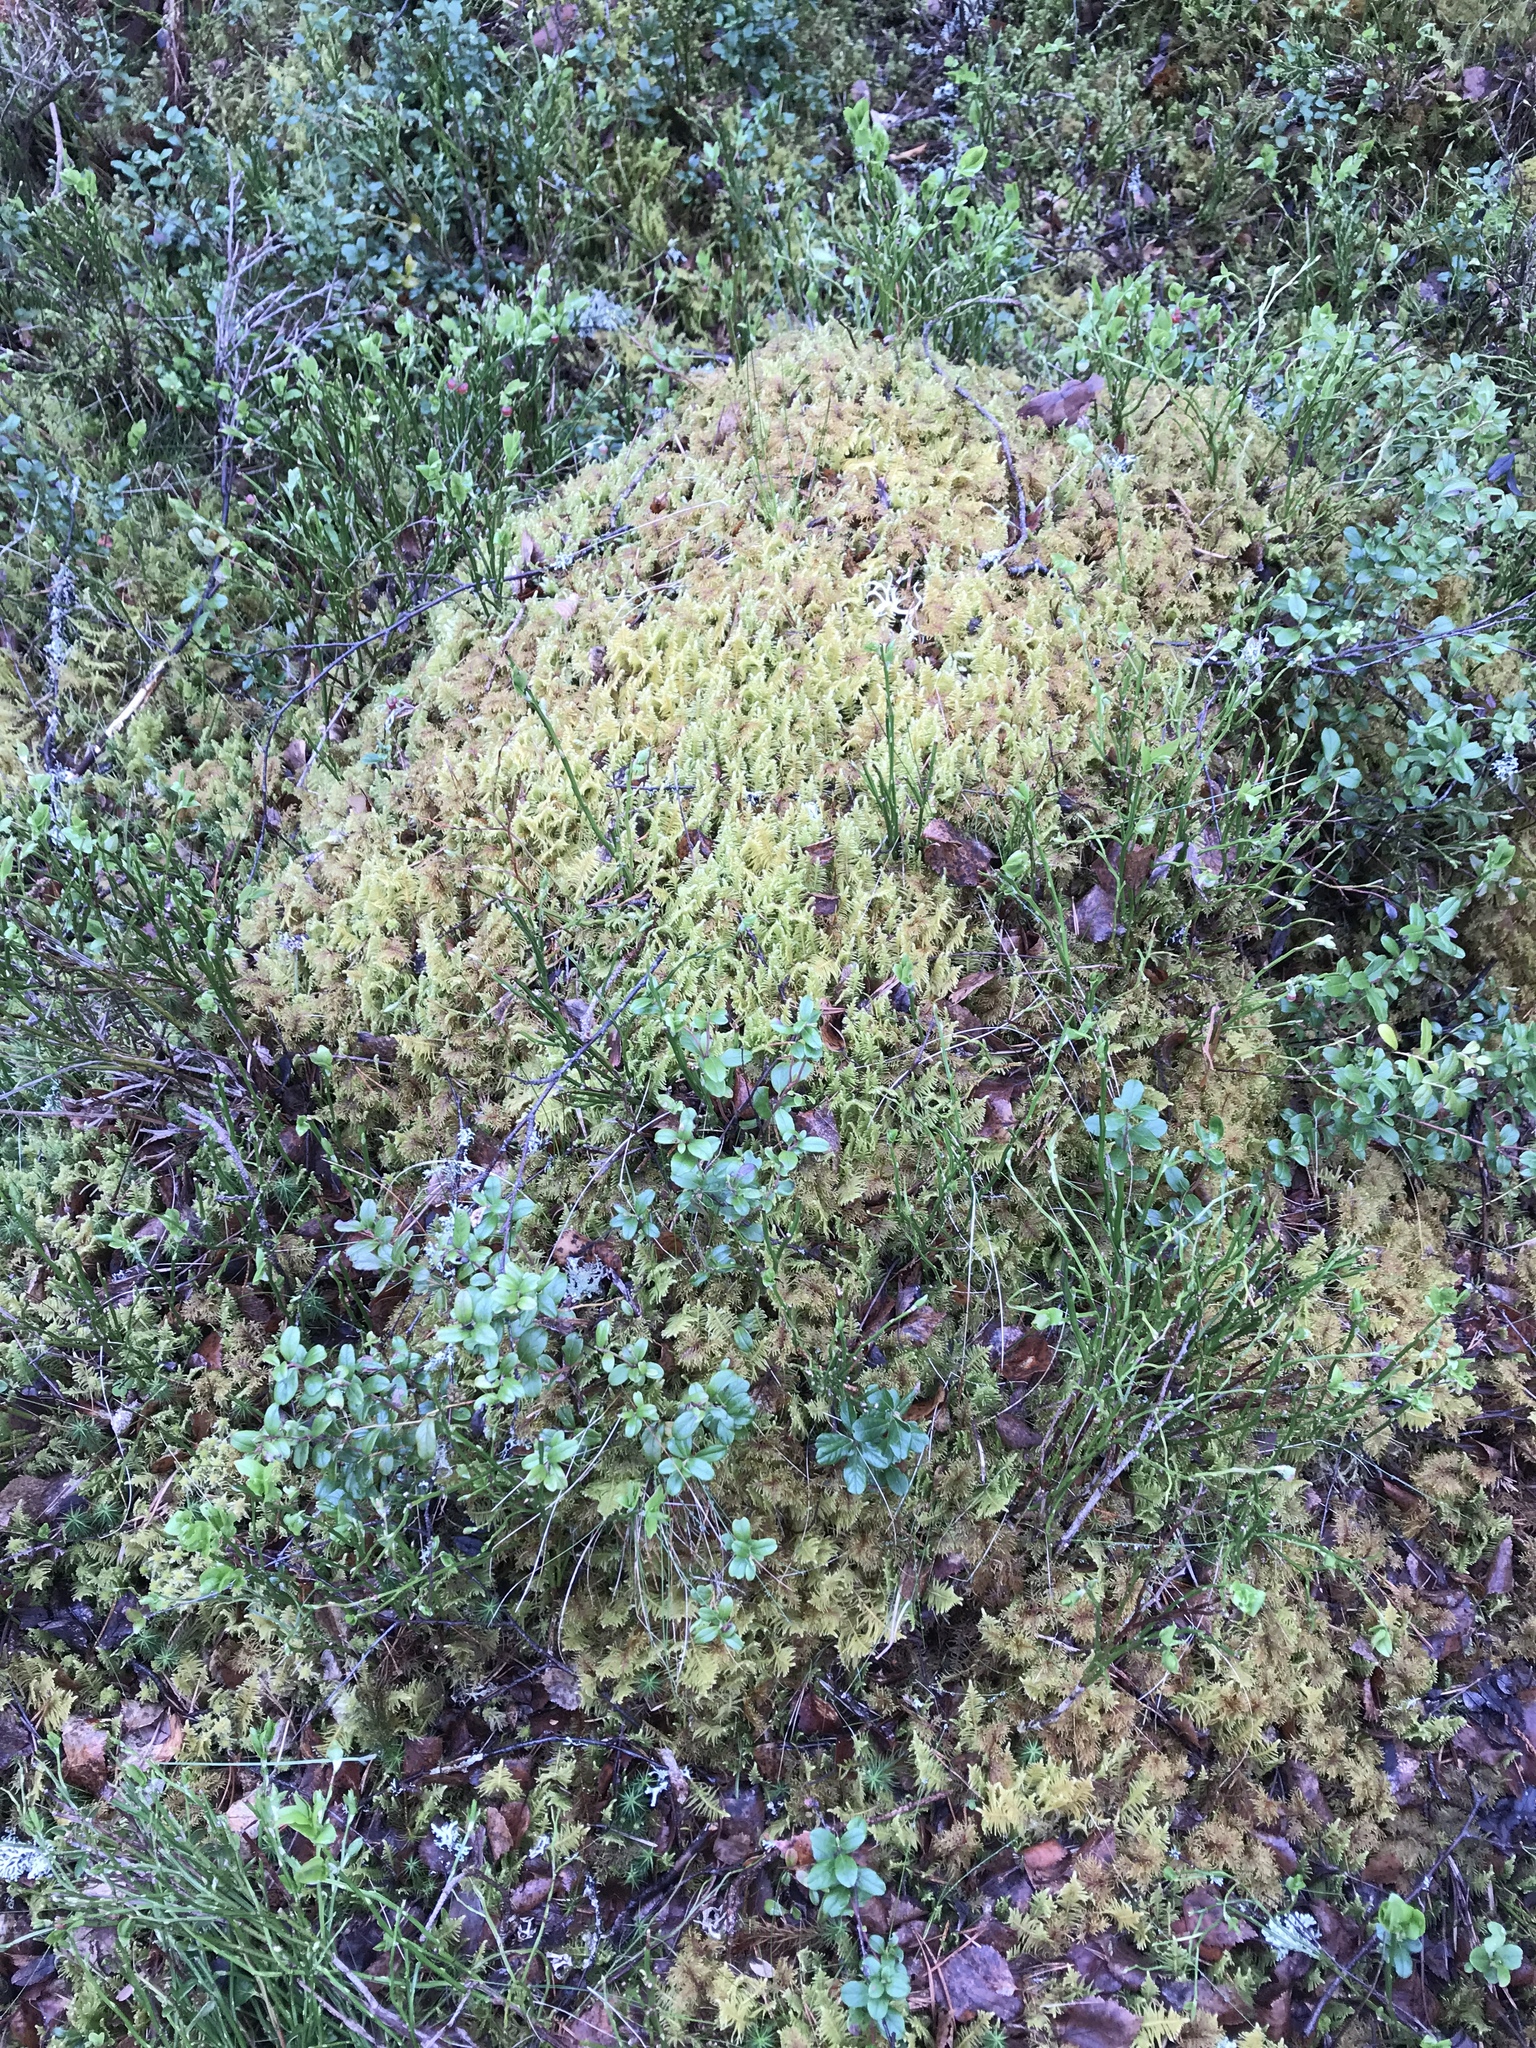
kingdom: Plantae
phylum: Bryophyta
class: Bryopsida
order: Hypnales
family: Pylaisiaceae
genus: Ptilium
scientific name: Ptilium crista-castrensis
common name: Knight's plume moss
